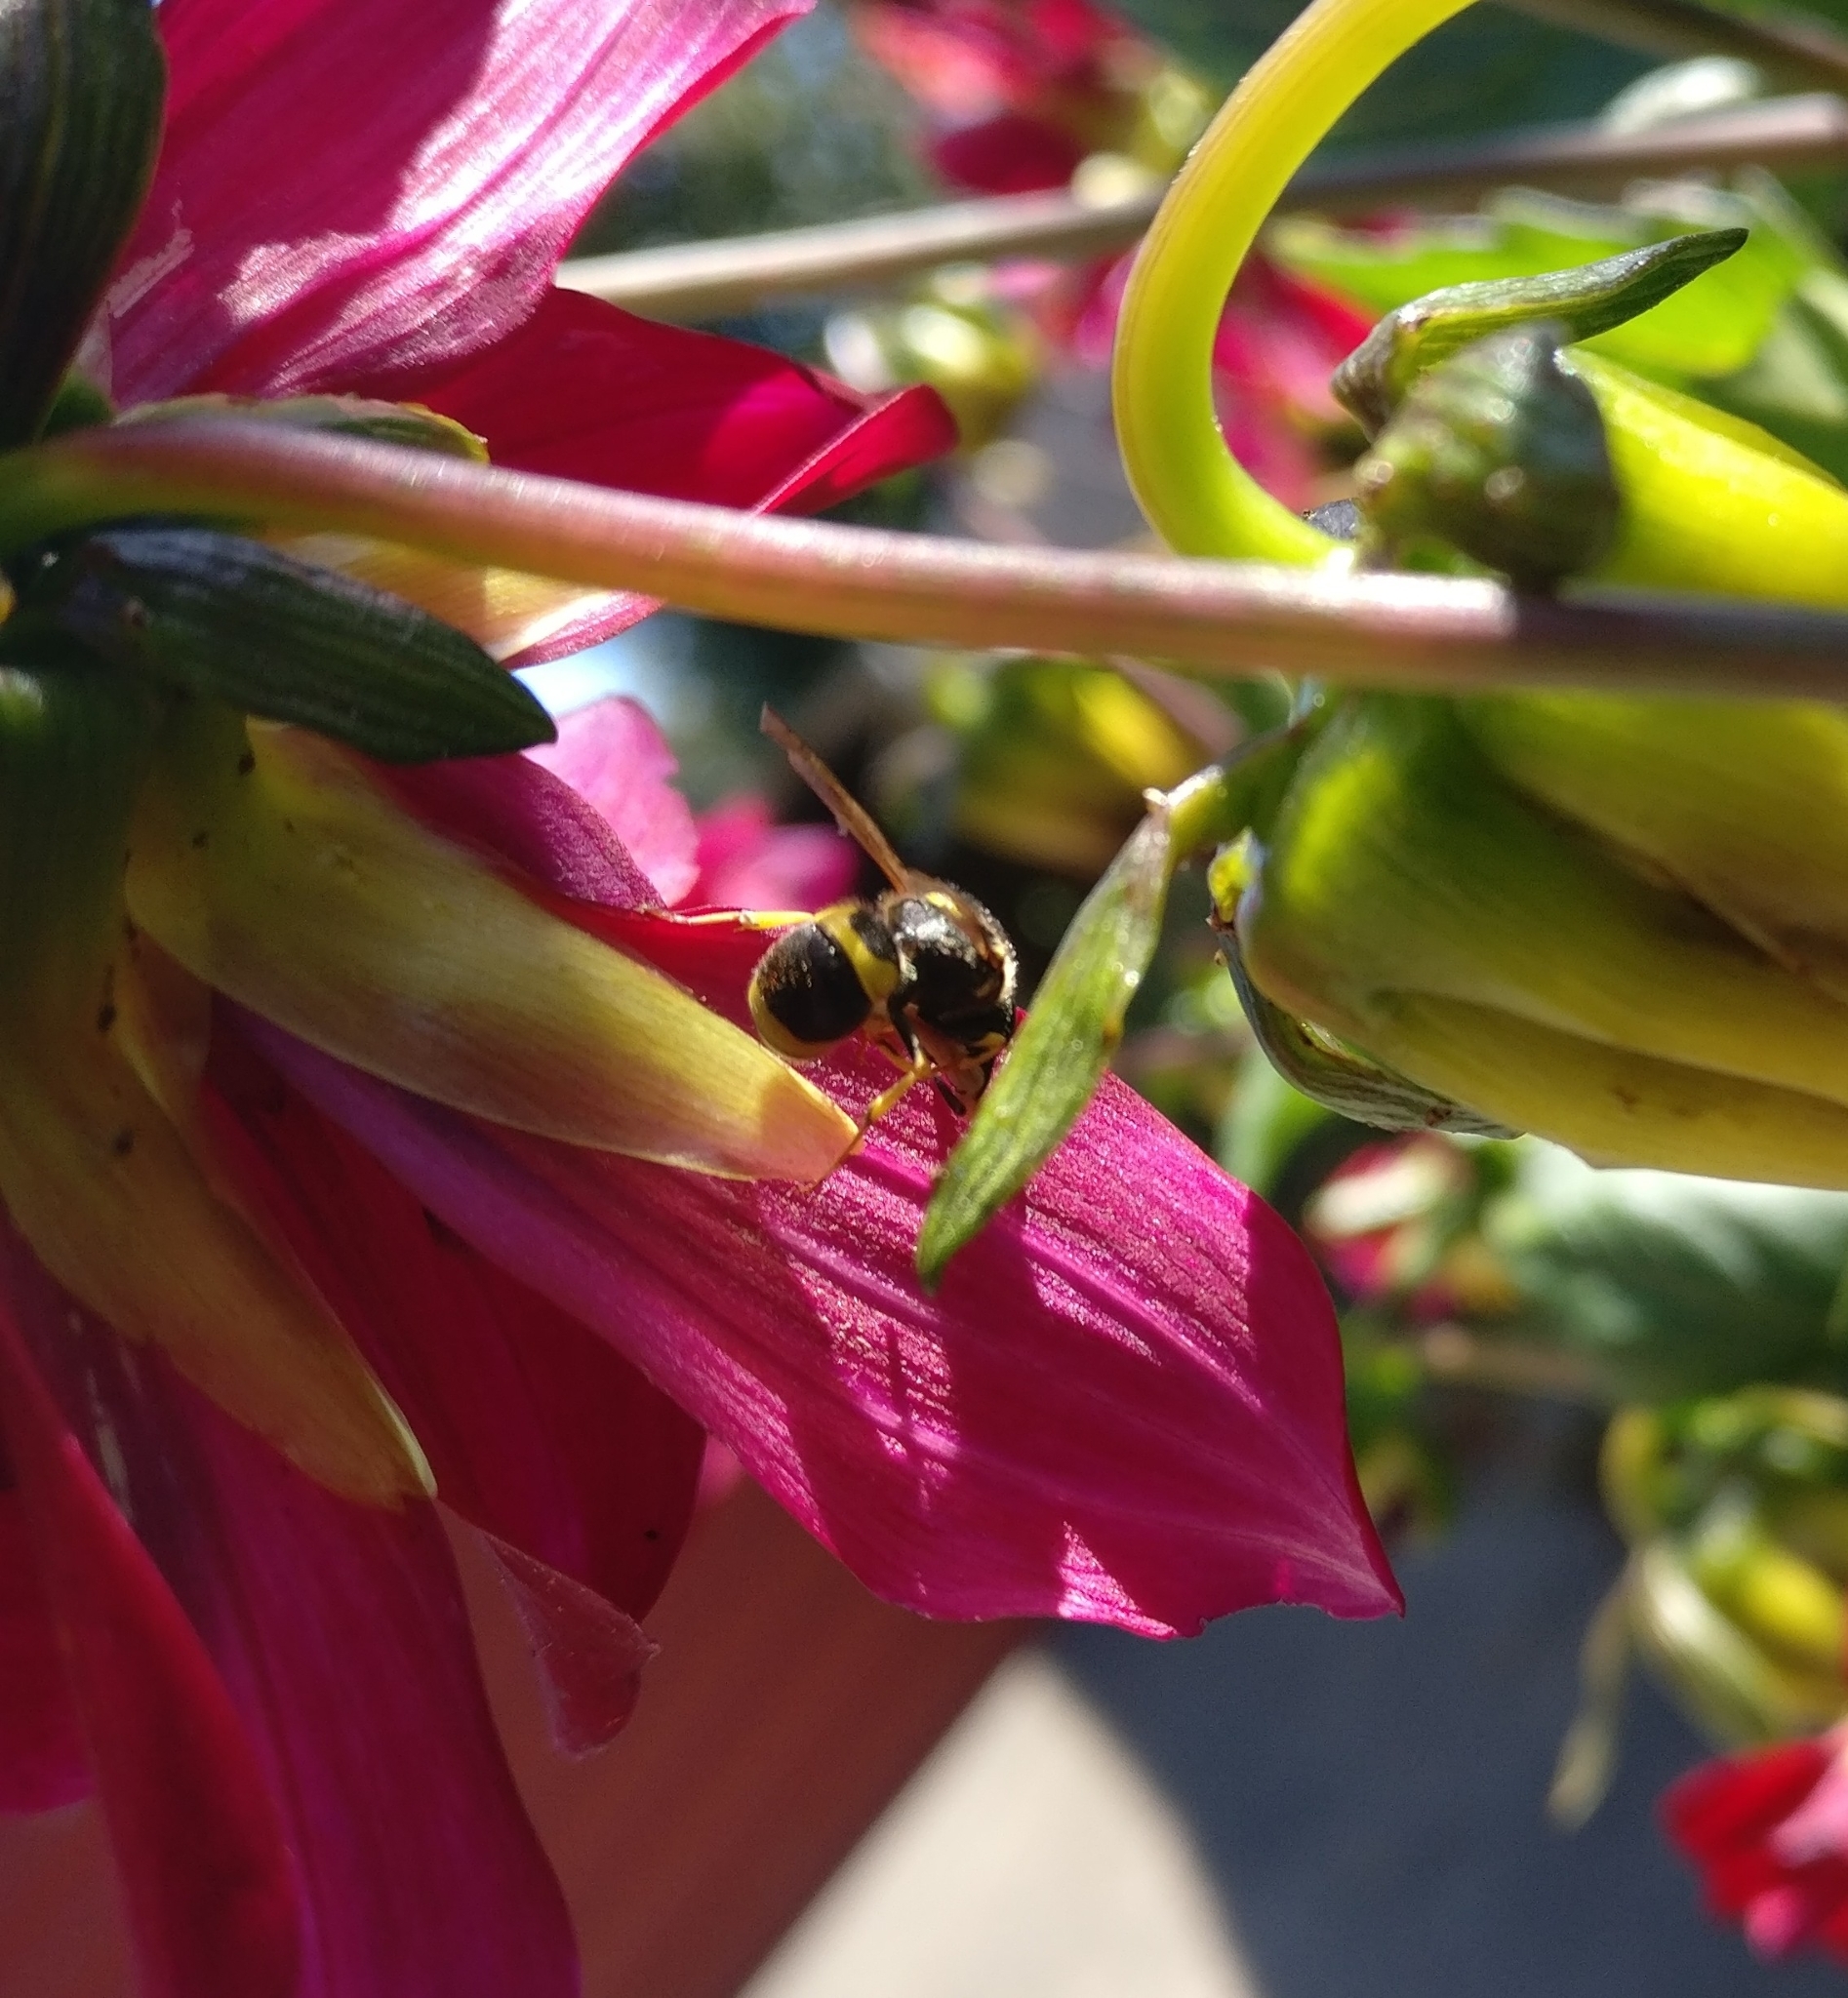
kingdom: Animalia
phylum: Arthropoda
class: Insecta
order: Hymenoptera
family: Vespidae
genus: Ancistrocerus
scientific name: Ancistrocerus gazella
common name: European tube wasp
